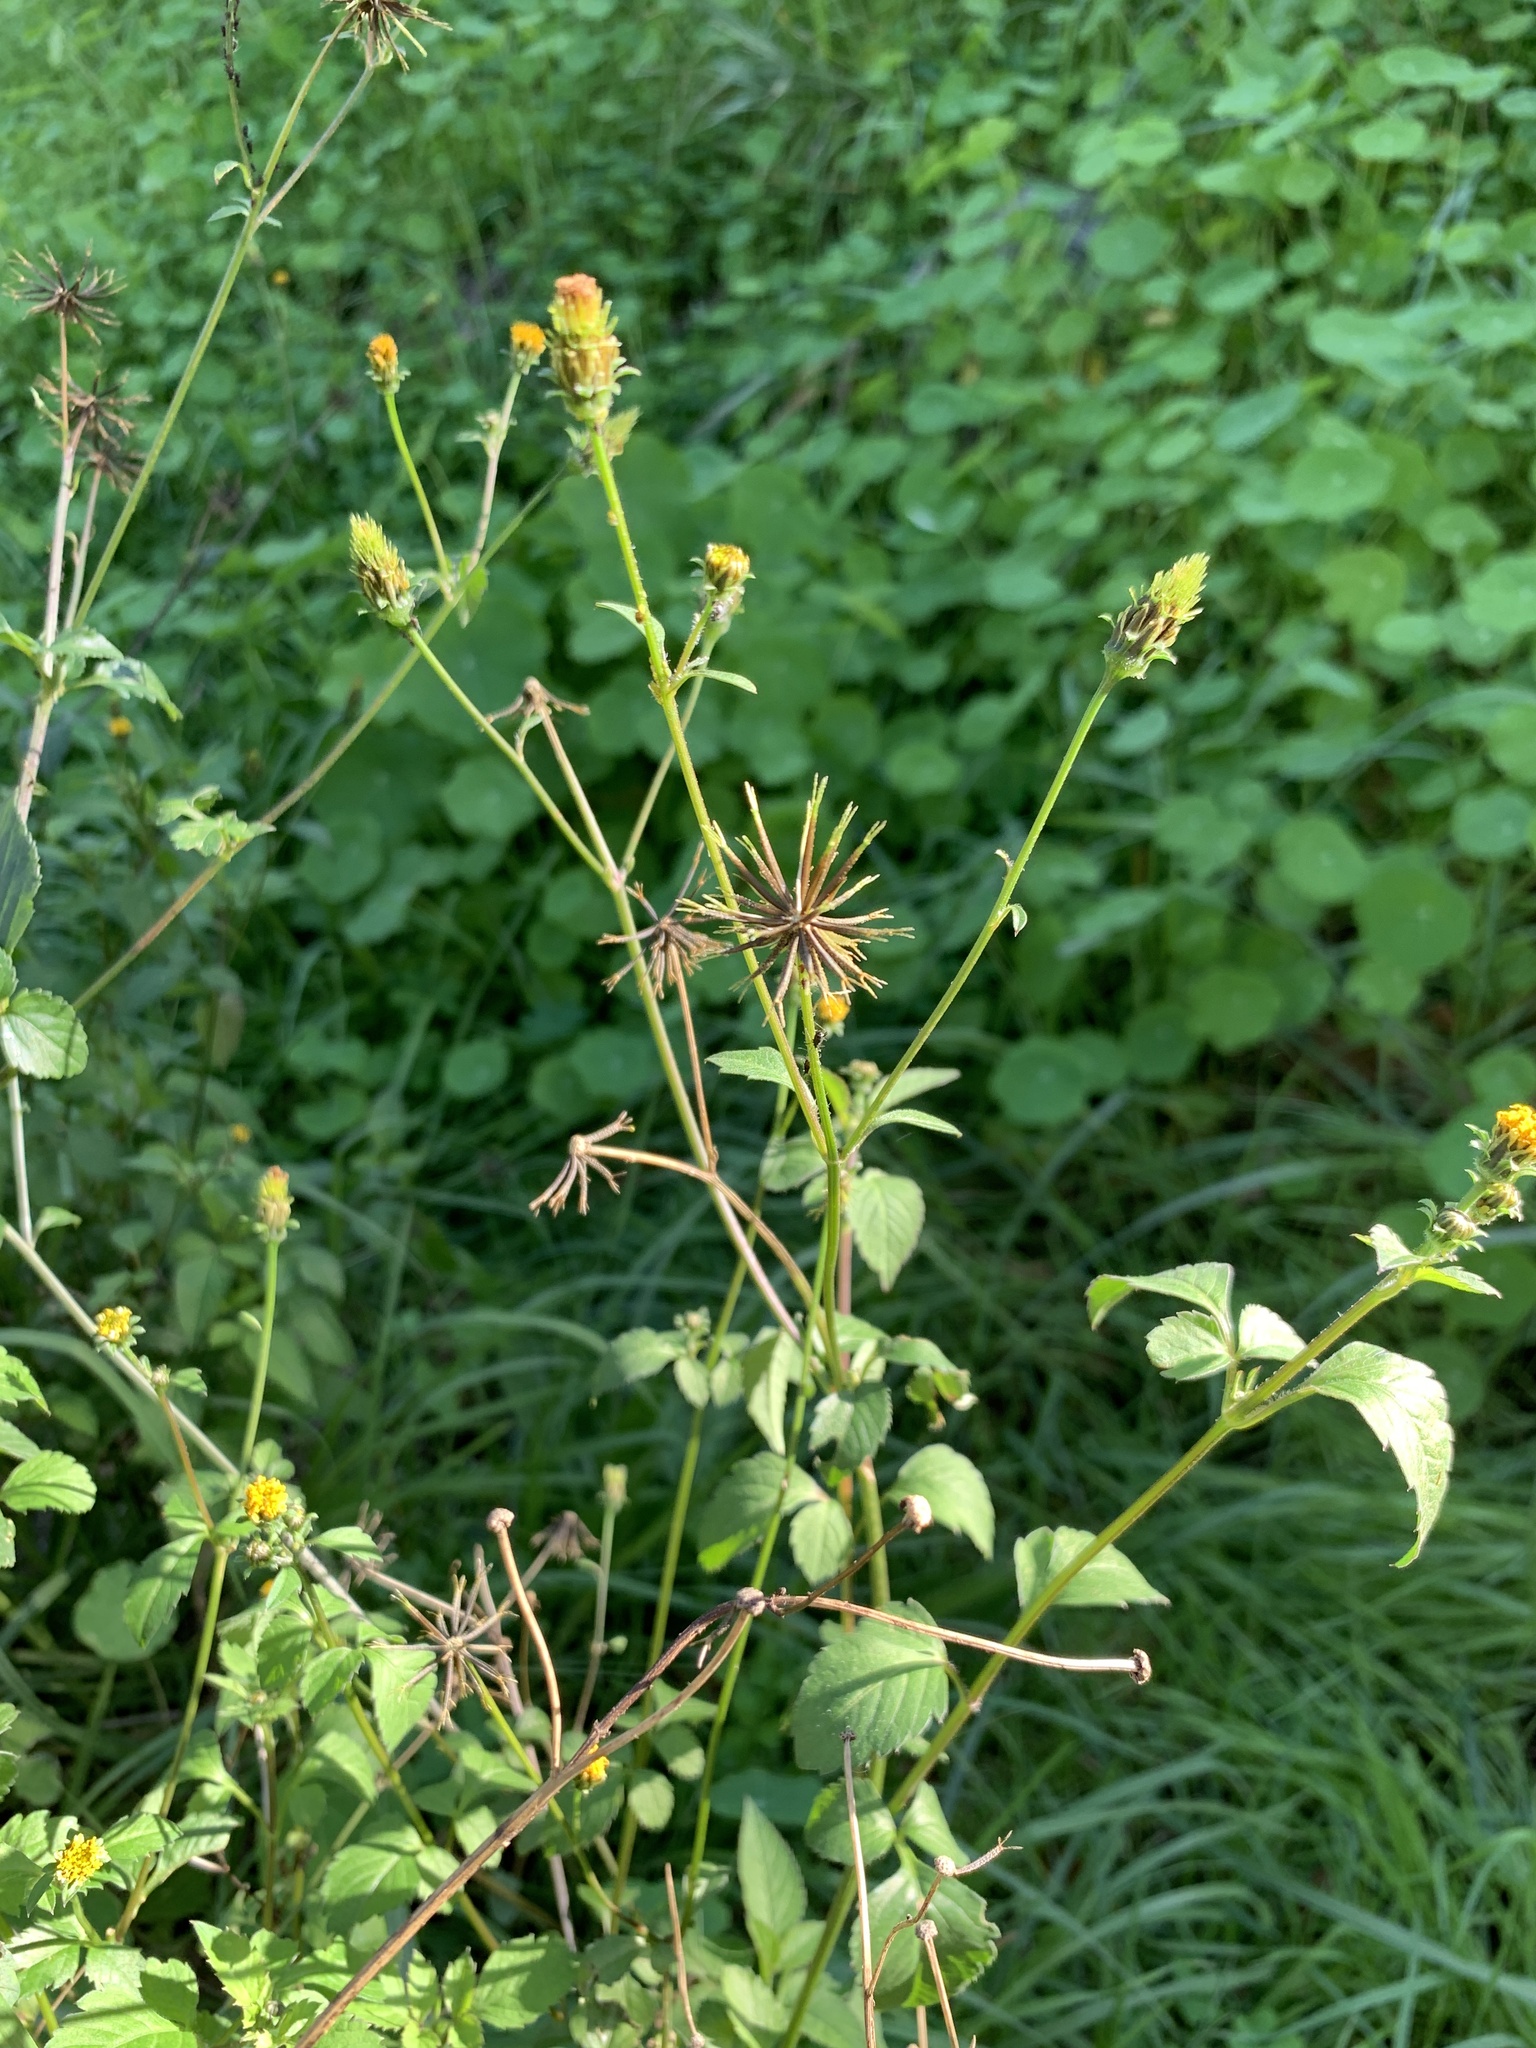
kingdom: Plantae
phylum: Tracheophyta
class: Magnoliopsida
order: Asterales
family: Asteraceae
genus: Bidens
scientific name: Bidens pilosa
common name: Black-jack
